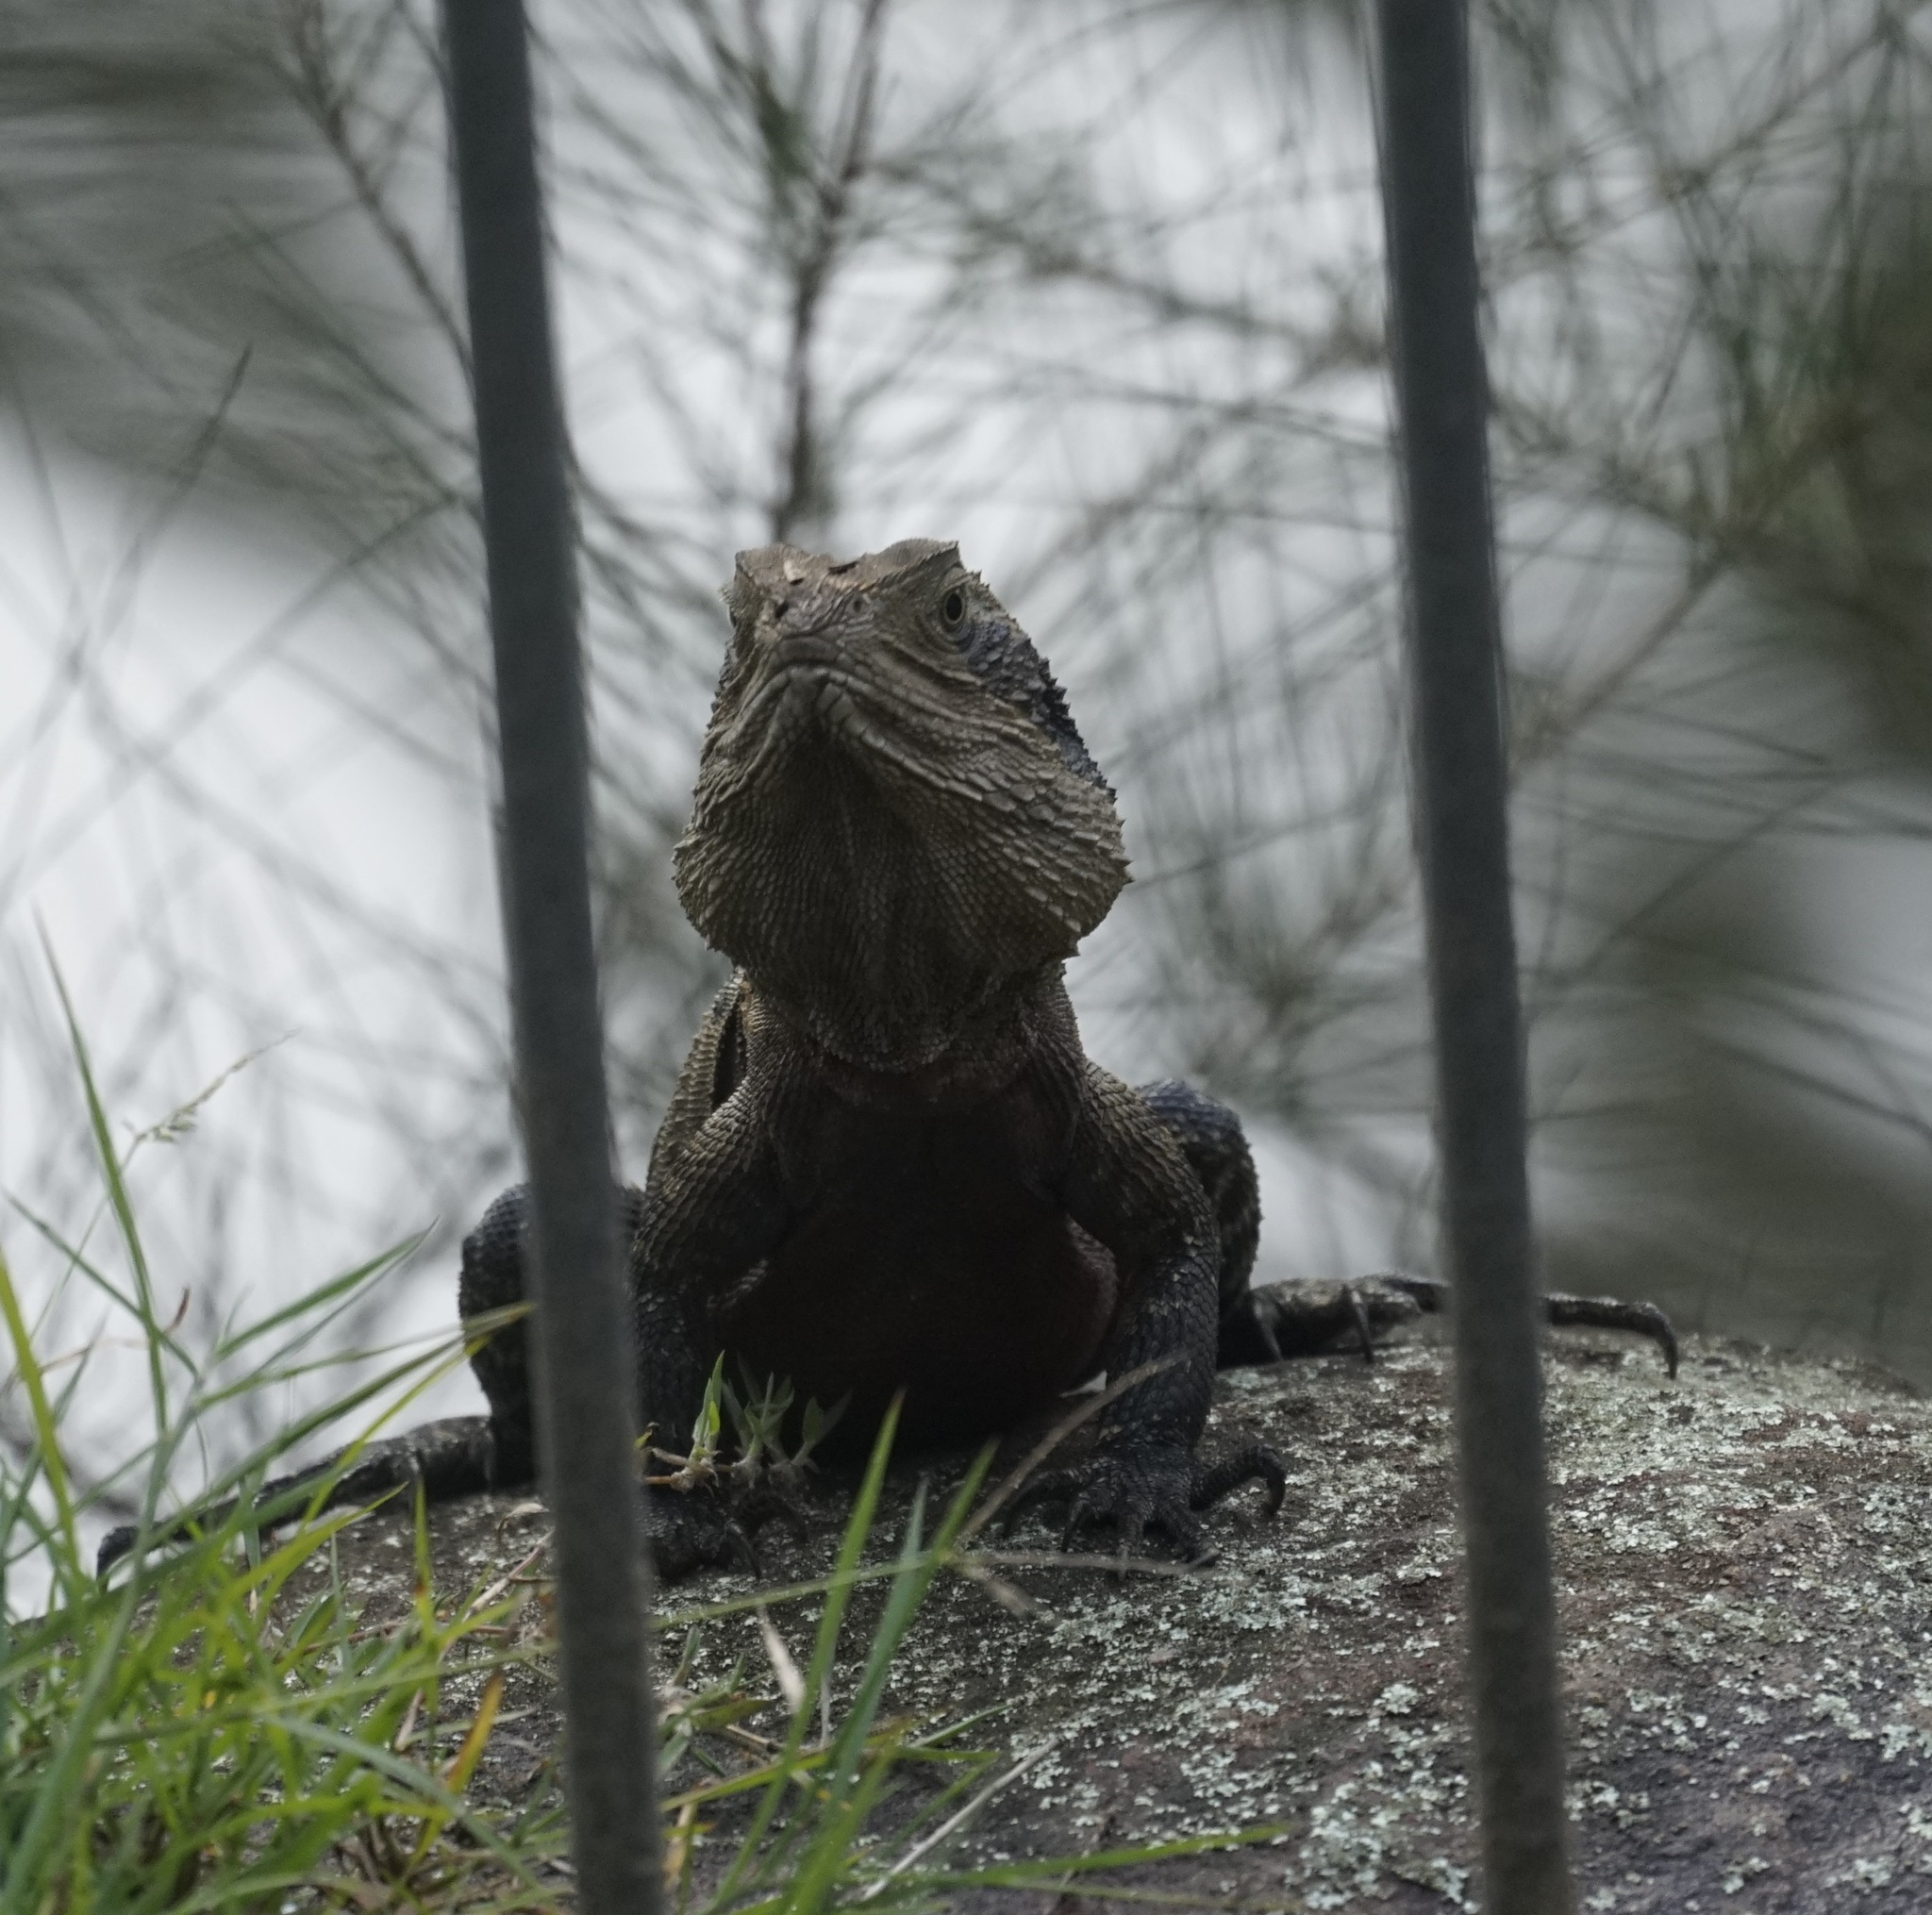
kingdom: Animalia
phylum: Chordata
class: Squamata
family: Agamidae
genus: Intellagama
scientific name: Intellagama lesueurii
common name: Eastern water dragon
